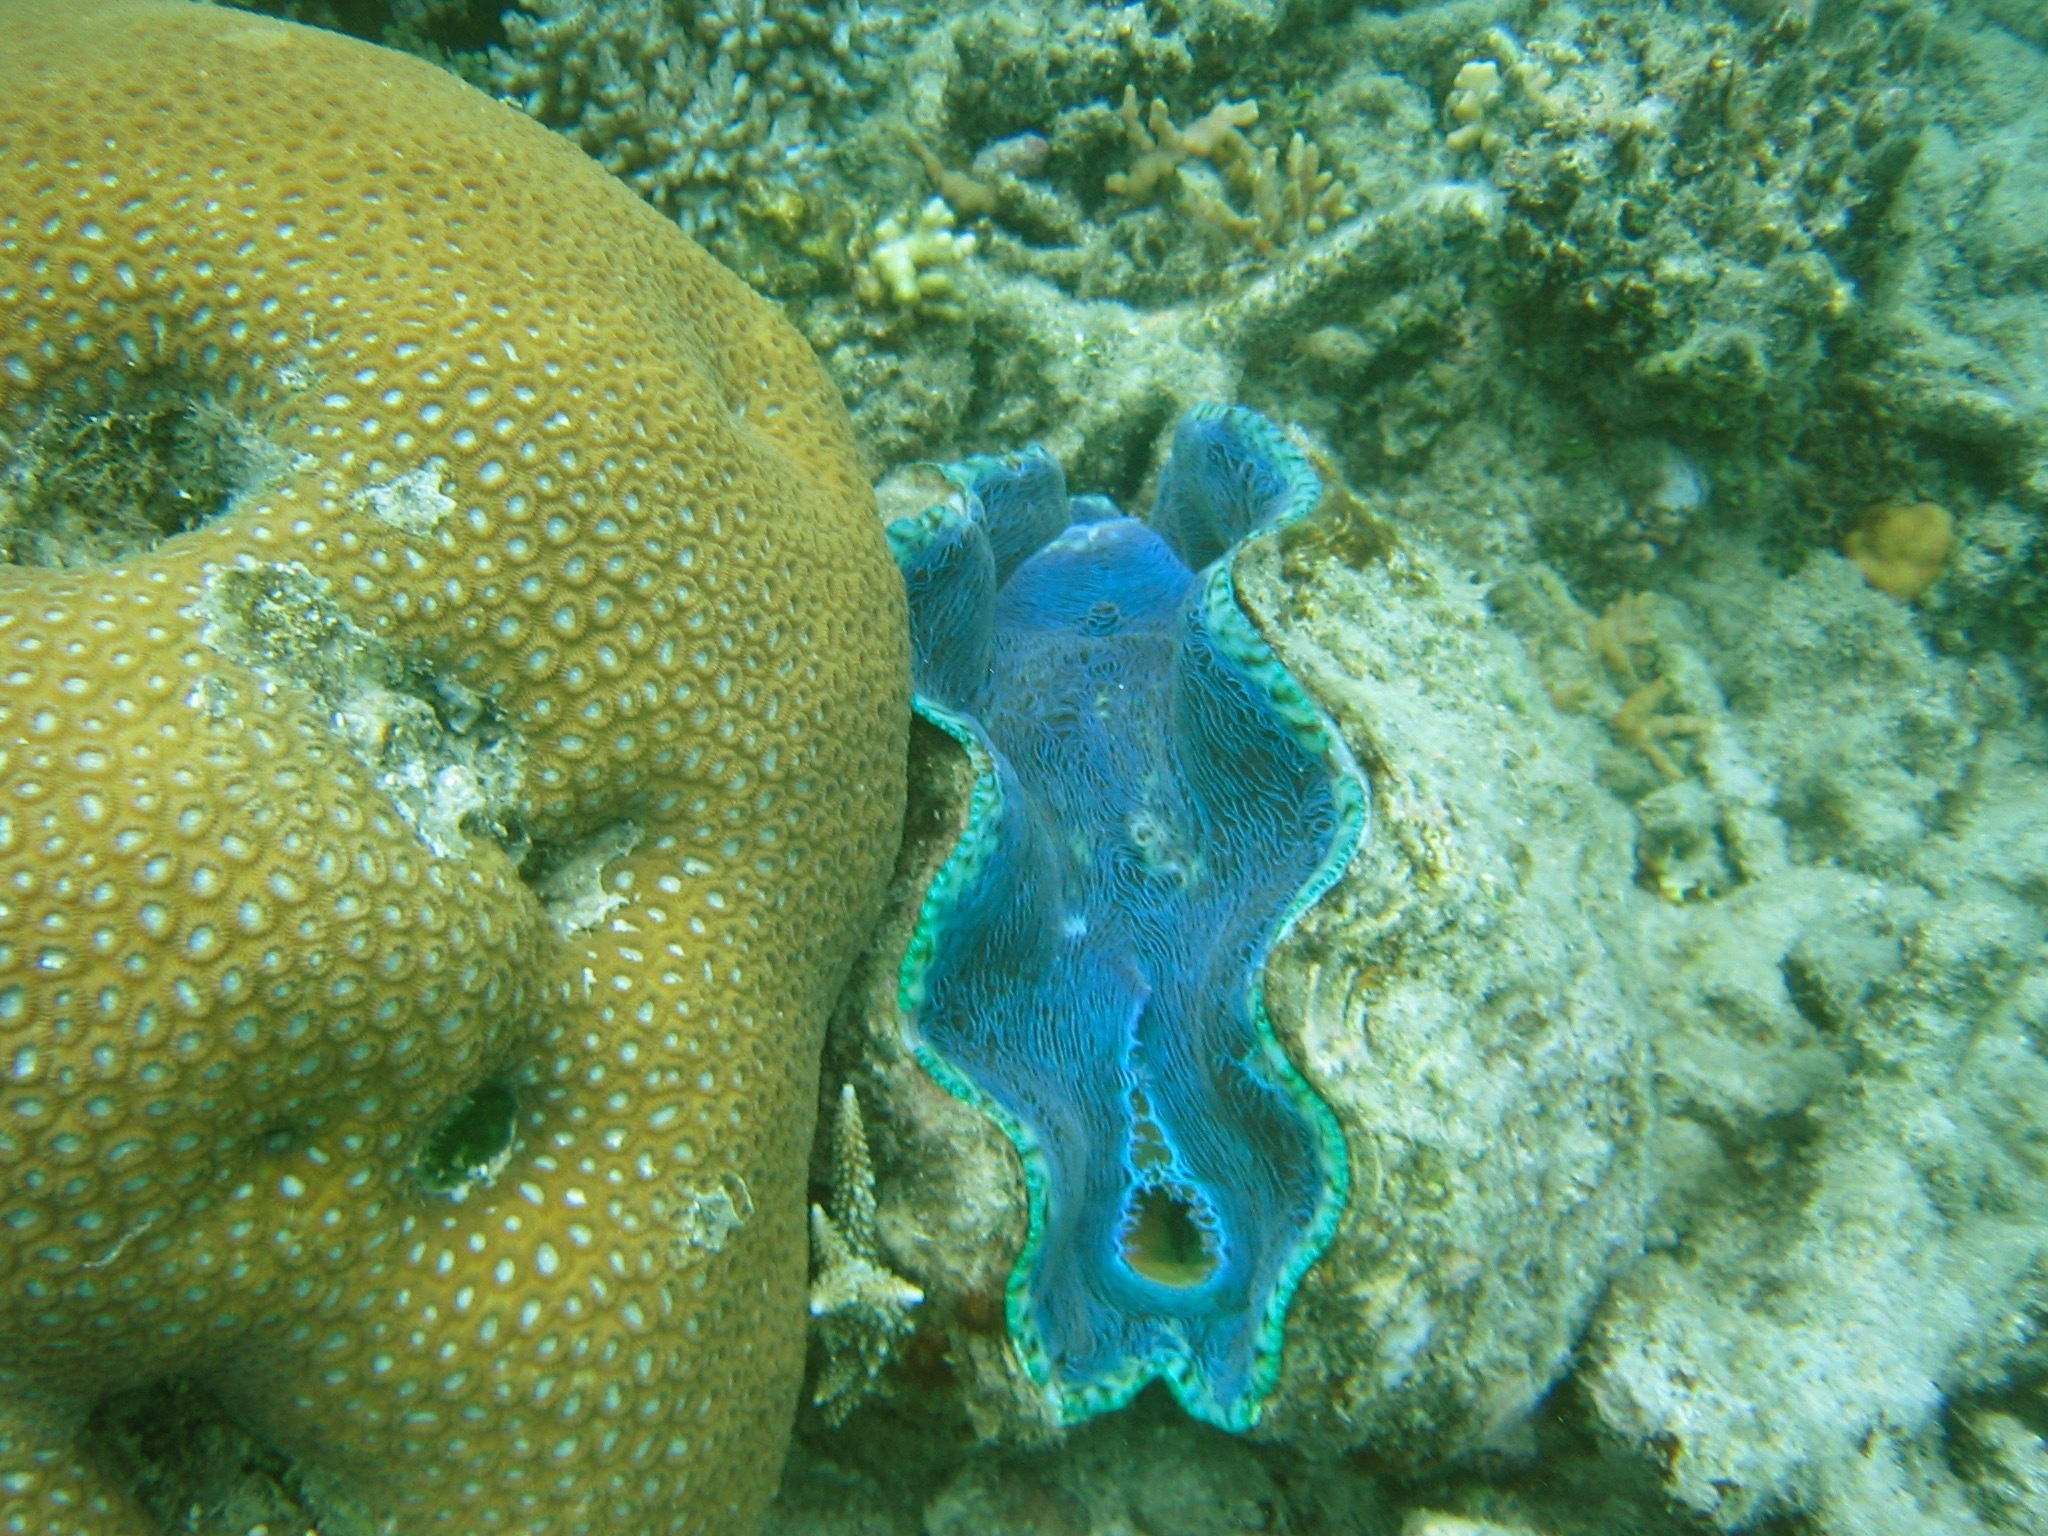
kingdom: Animalia
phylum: Mollusca
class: Bivalvia
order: Cardiida
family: Cardiidae
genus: Tridacna
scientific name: Tridacna derasa
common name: Southern giant clam
